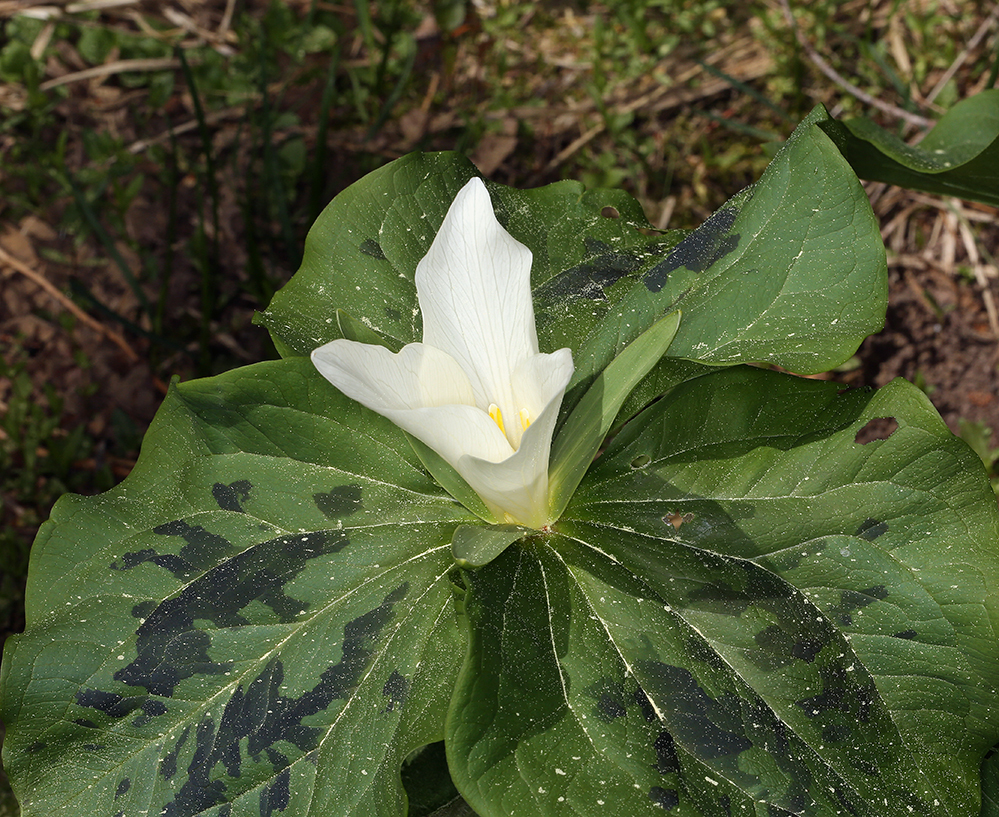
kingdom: Plantae
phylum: Tracheophyta
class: Liliopsida
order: Liliales
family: Melanthiaceae
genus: Trillium
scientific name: Trillium albidum
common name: Freeman's trillium
